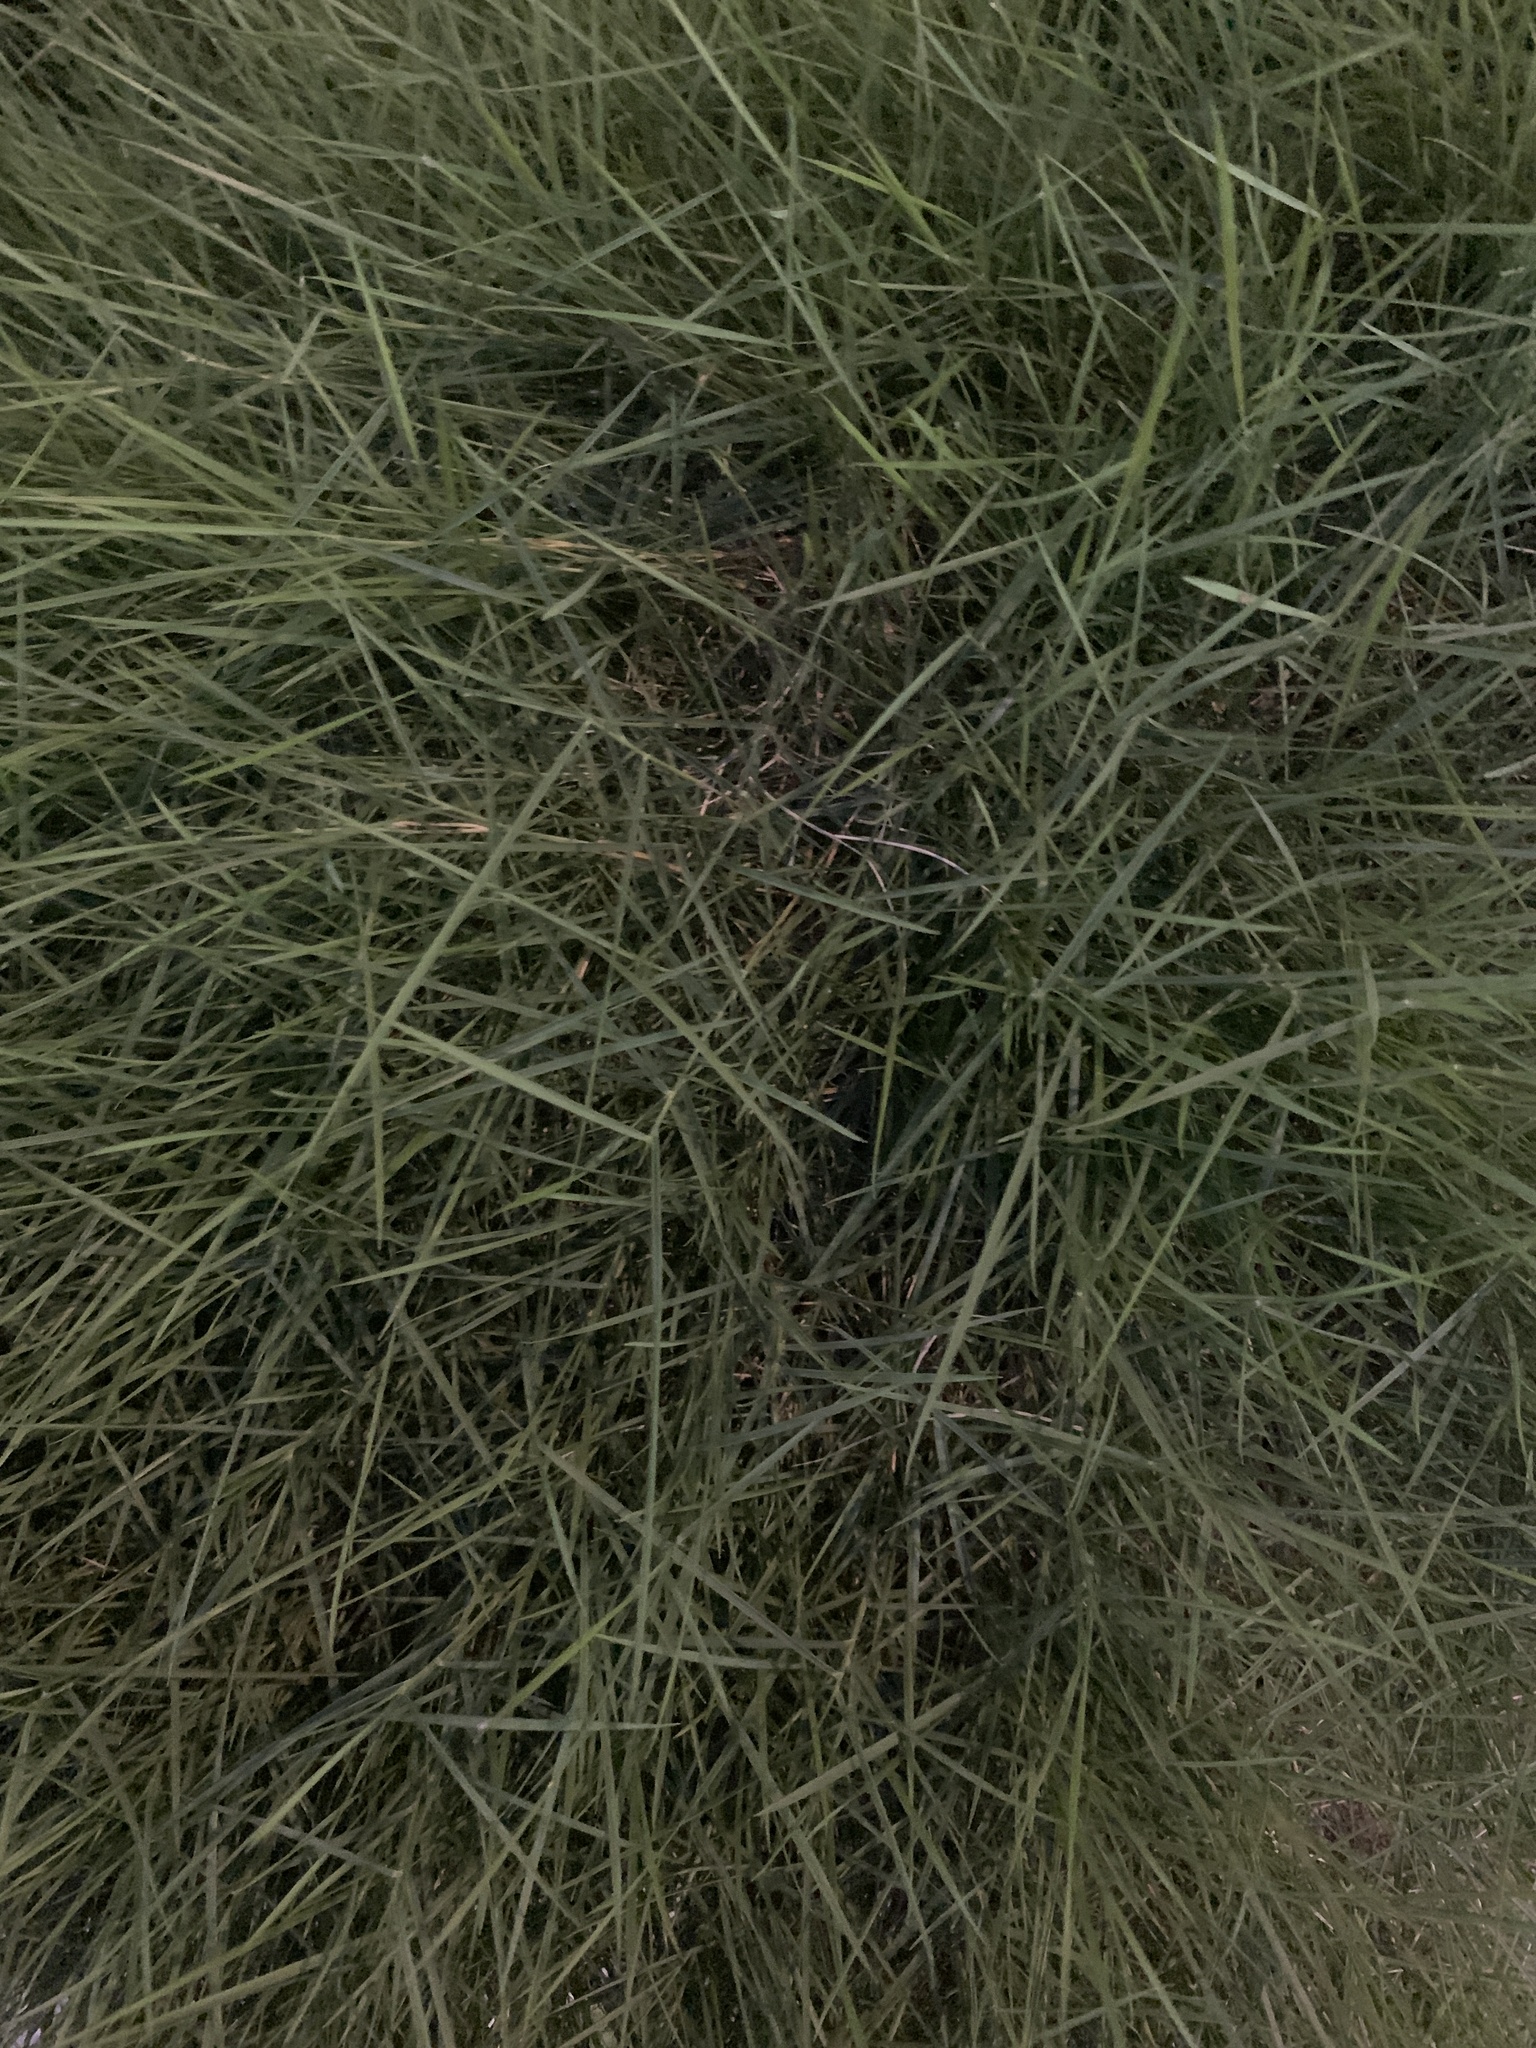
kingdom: Plantae
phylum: Tracheophyta
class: Liliopsida
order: Poales
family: Poaceae
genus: Cynodon
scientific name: Cynodon dactylon
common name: Bermuda grass
